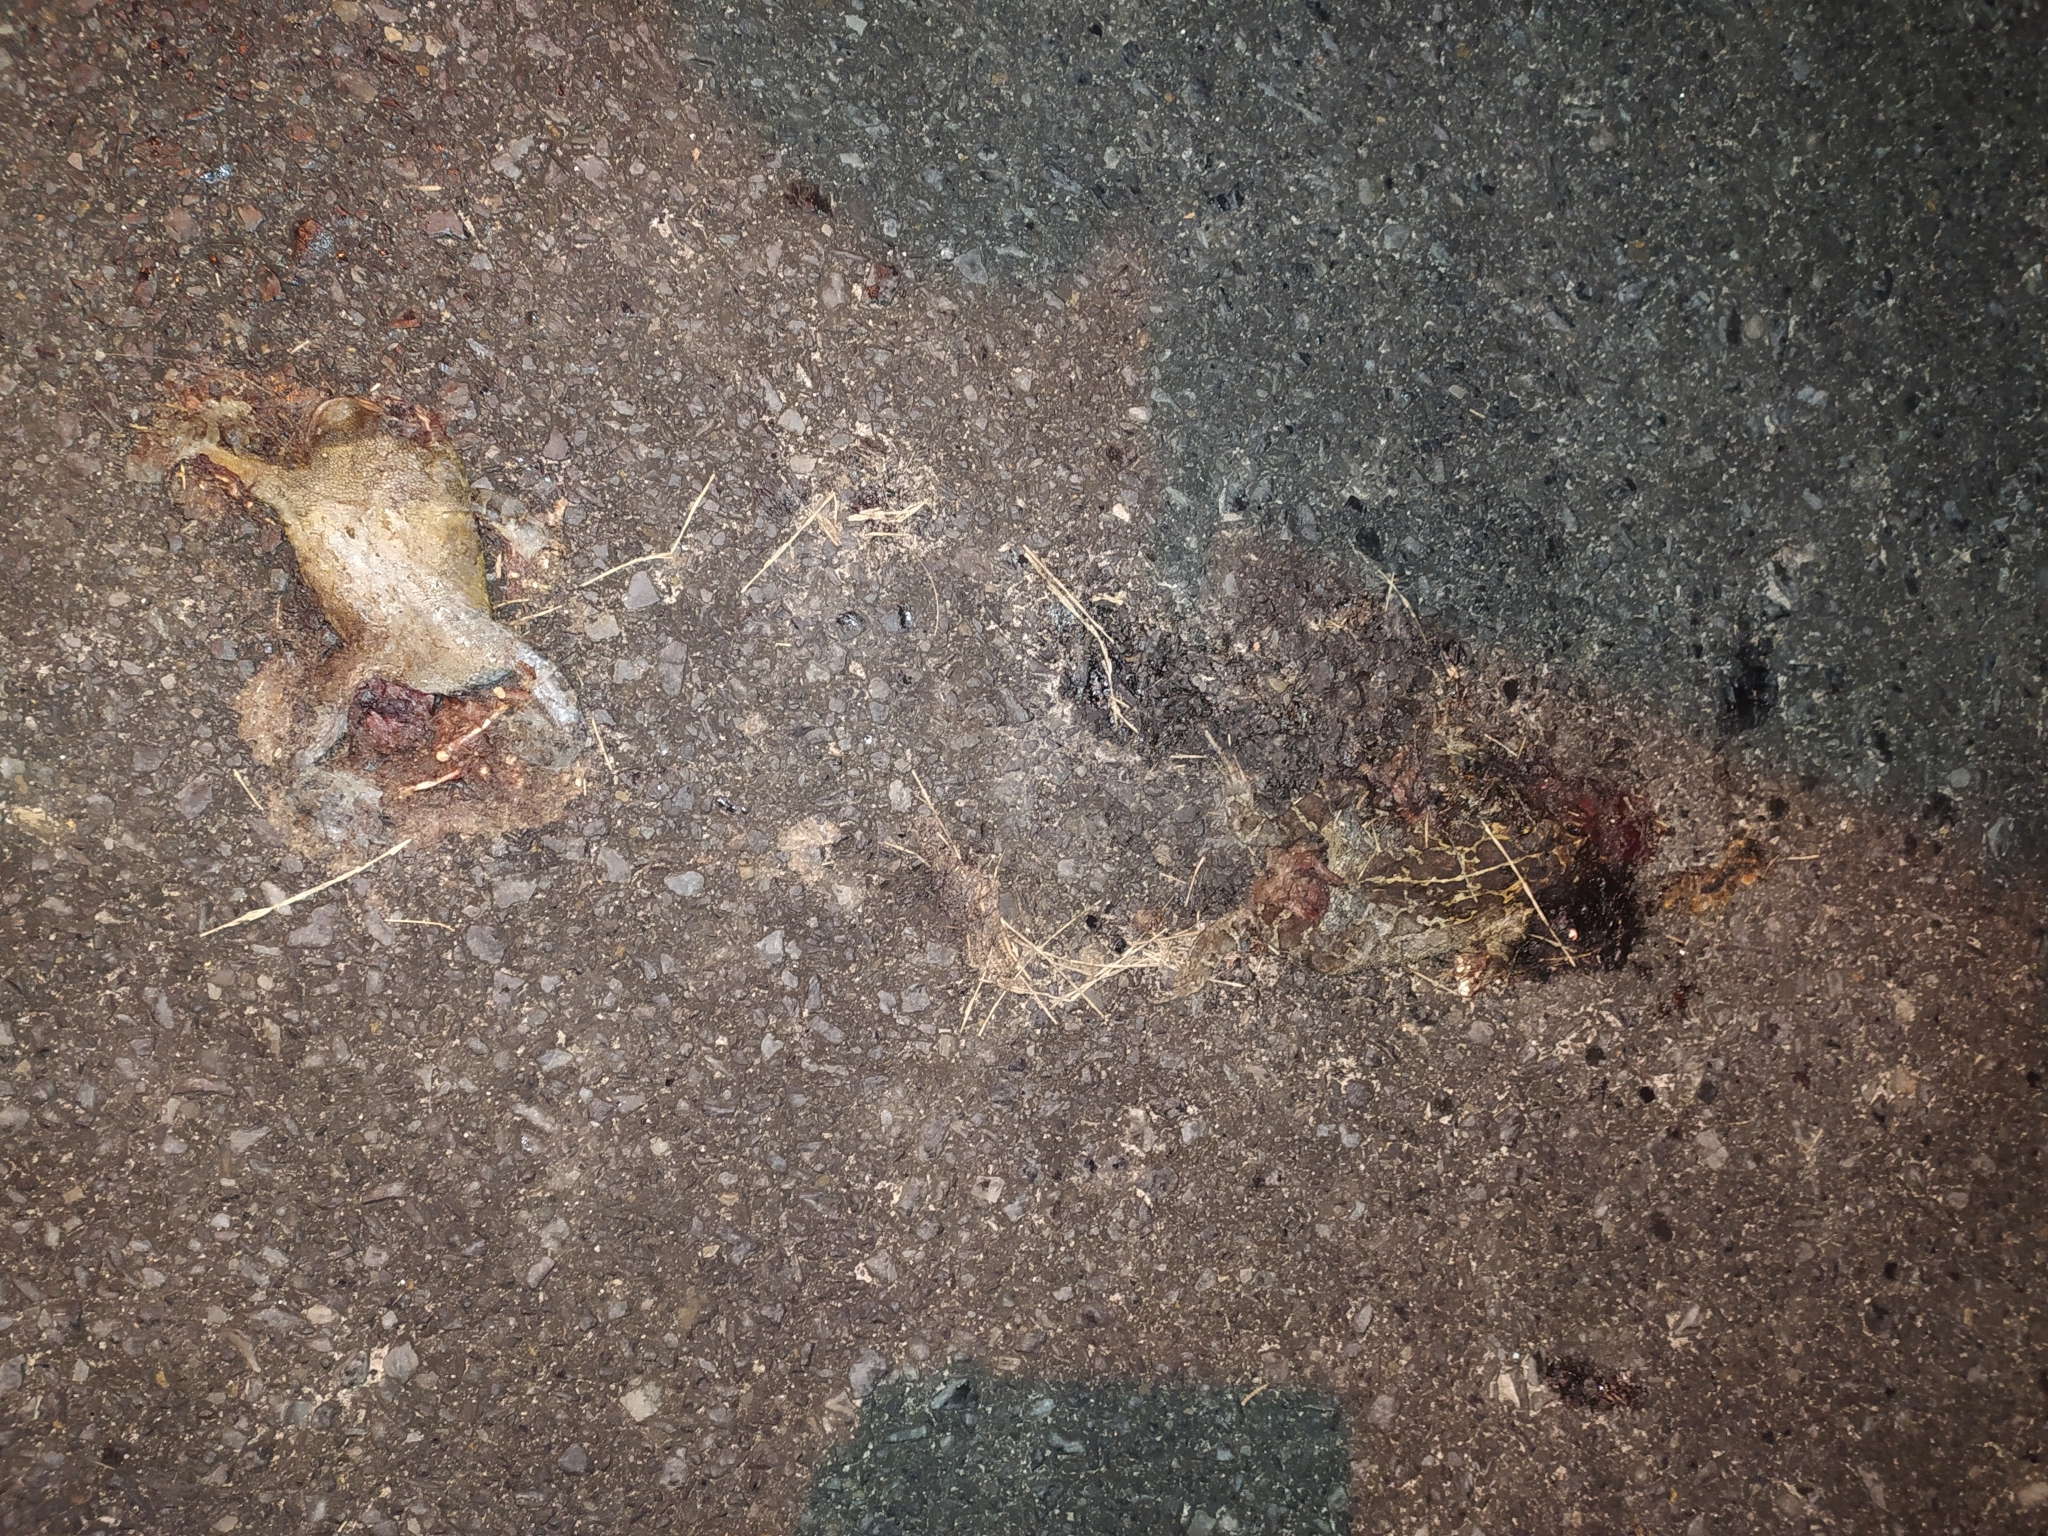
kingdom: Animalia
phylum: Chordata
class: Amphibia
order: Anura
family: Bufonidae
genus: Sclerophrys
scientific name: Sclerophrys pantherina
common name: Panther toad
